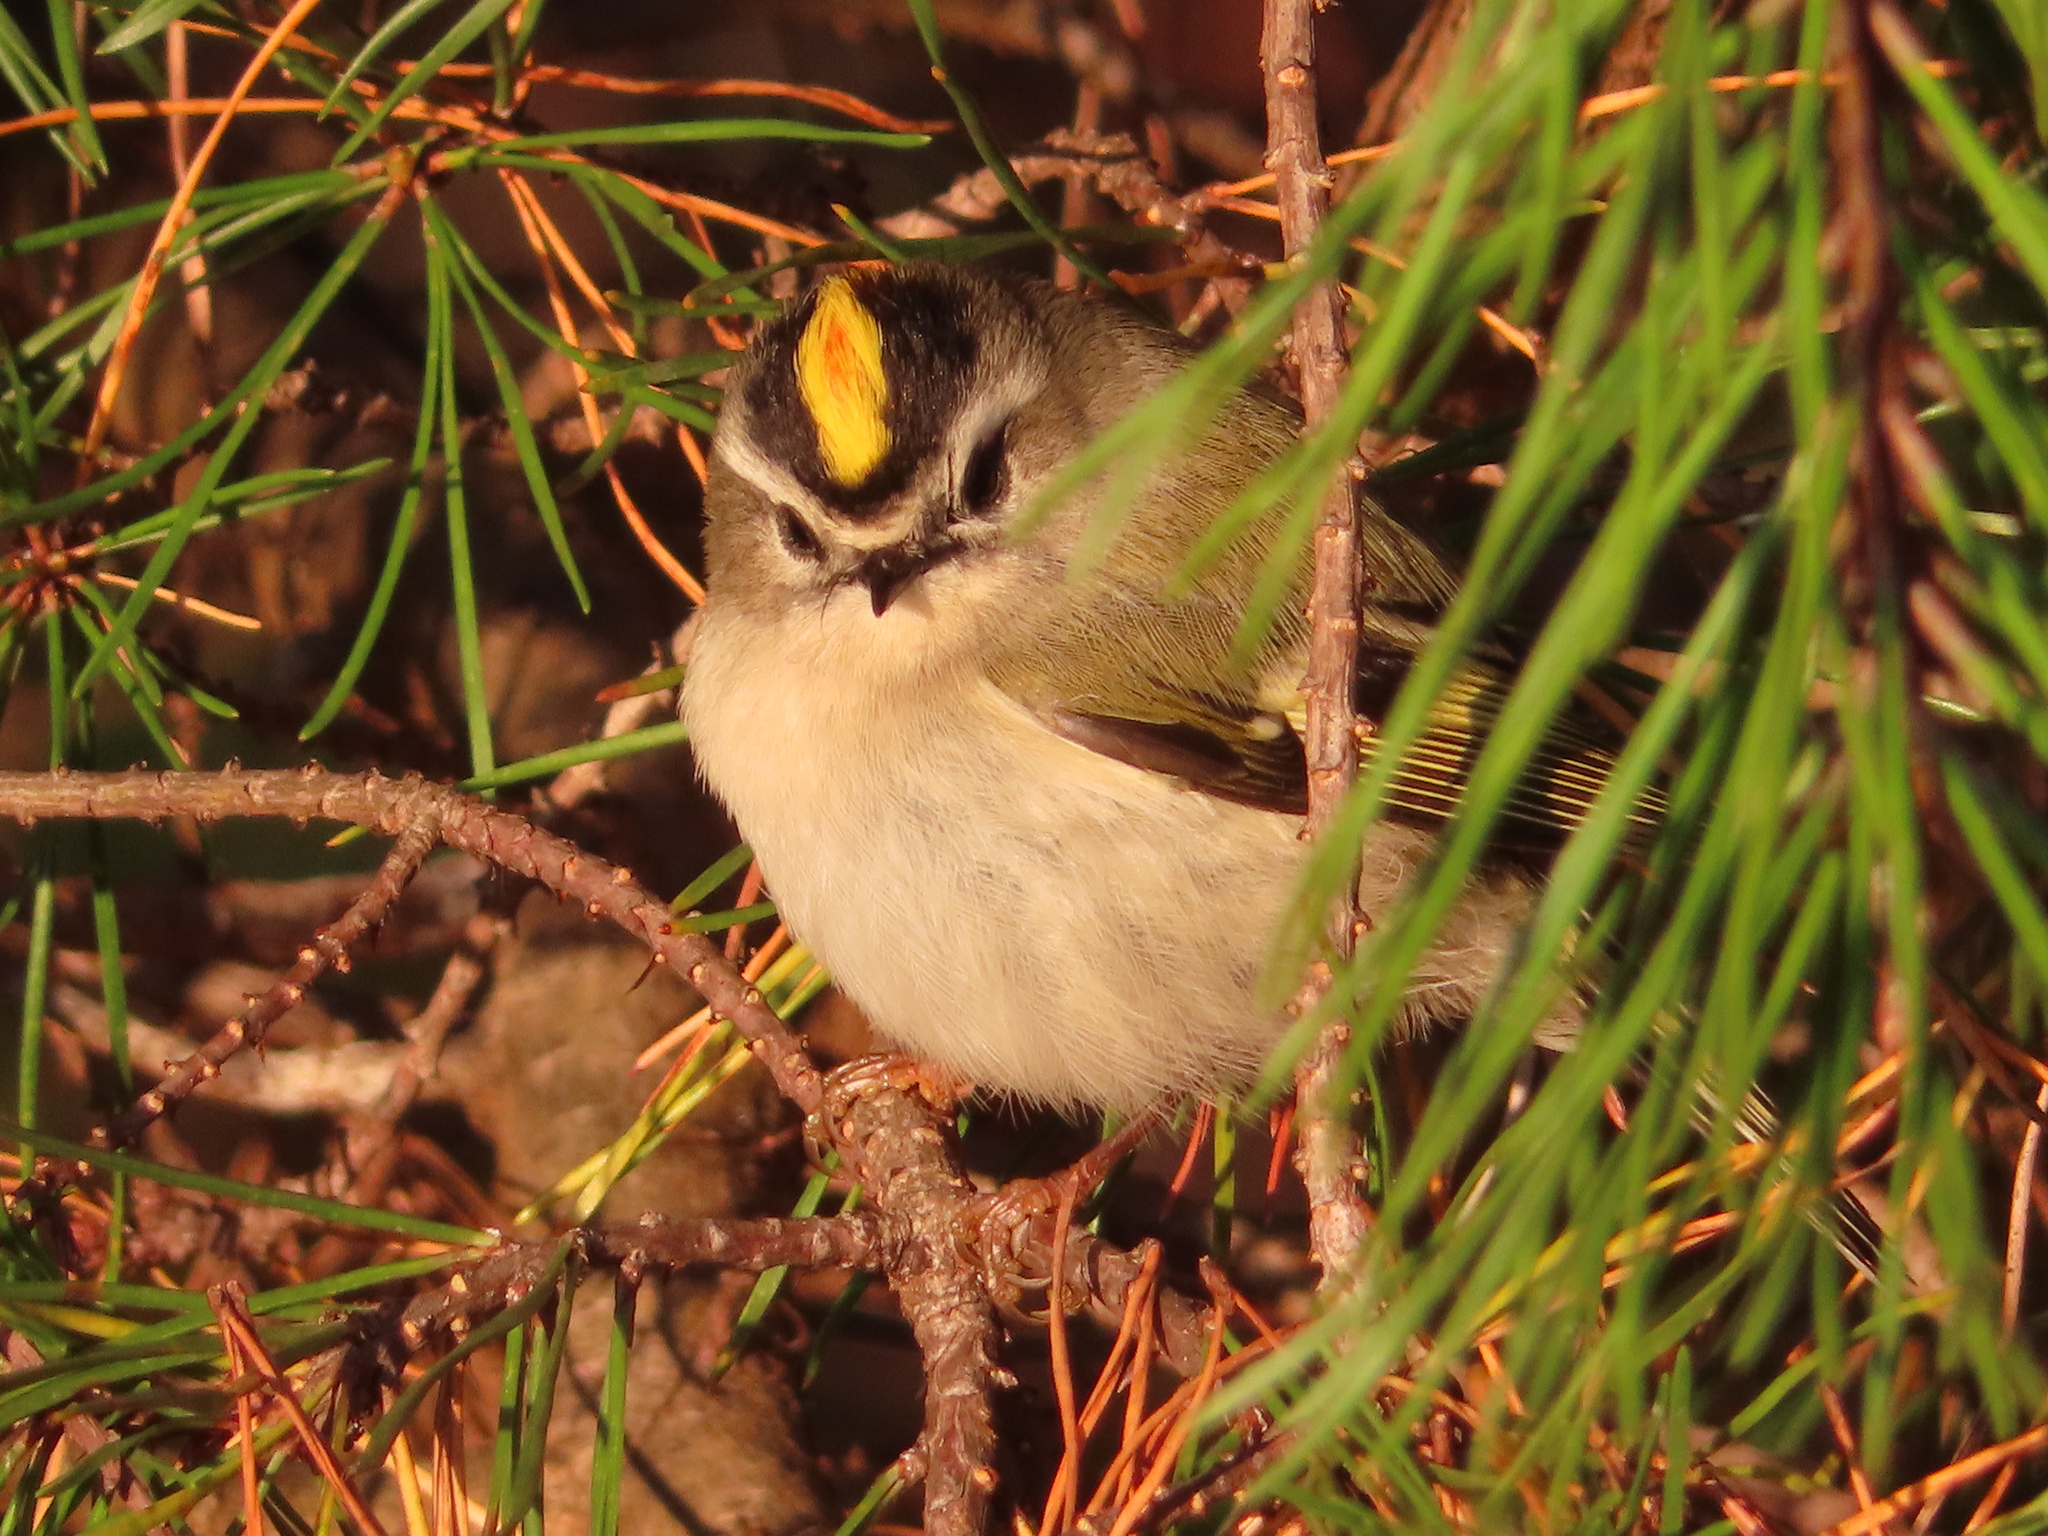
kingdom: Animalia
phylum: Chordata
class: Aves
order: Passeriformes
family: Regulidae
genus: Regulus
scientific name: Regulus satrapa
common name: Golden-crowned kinglet
